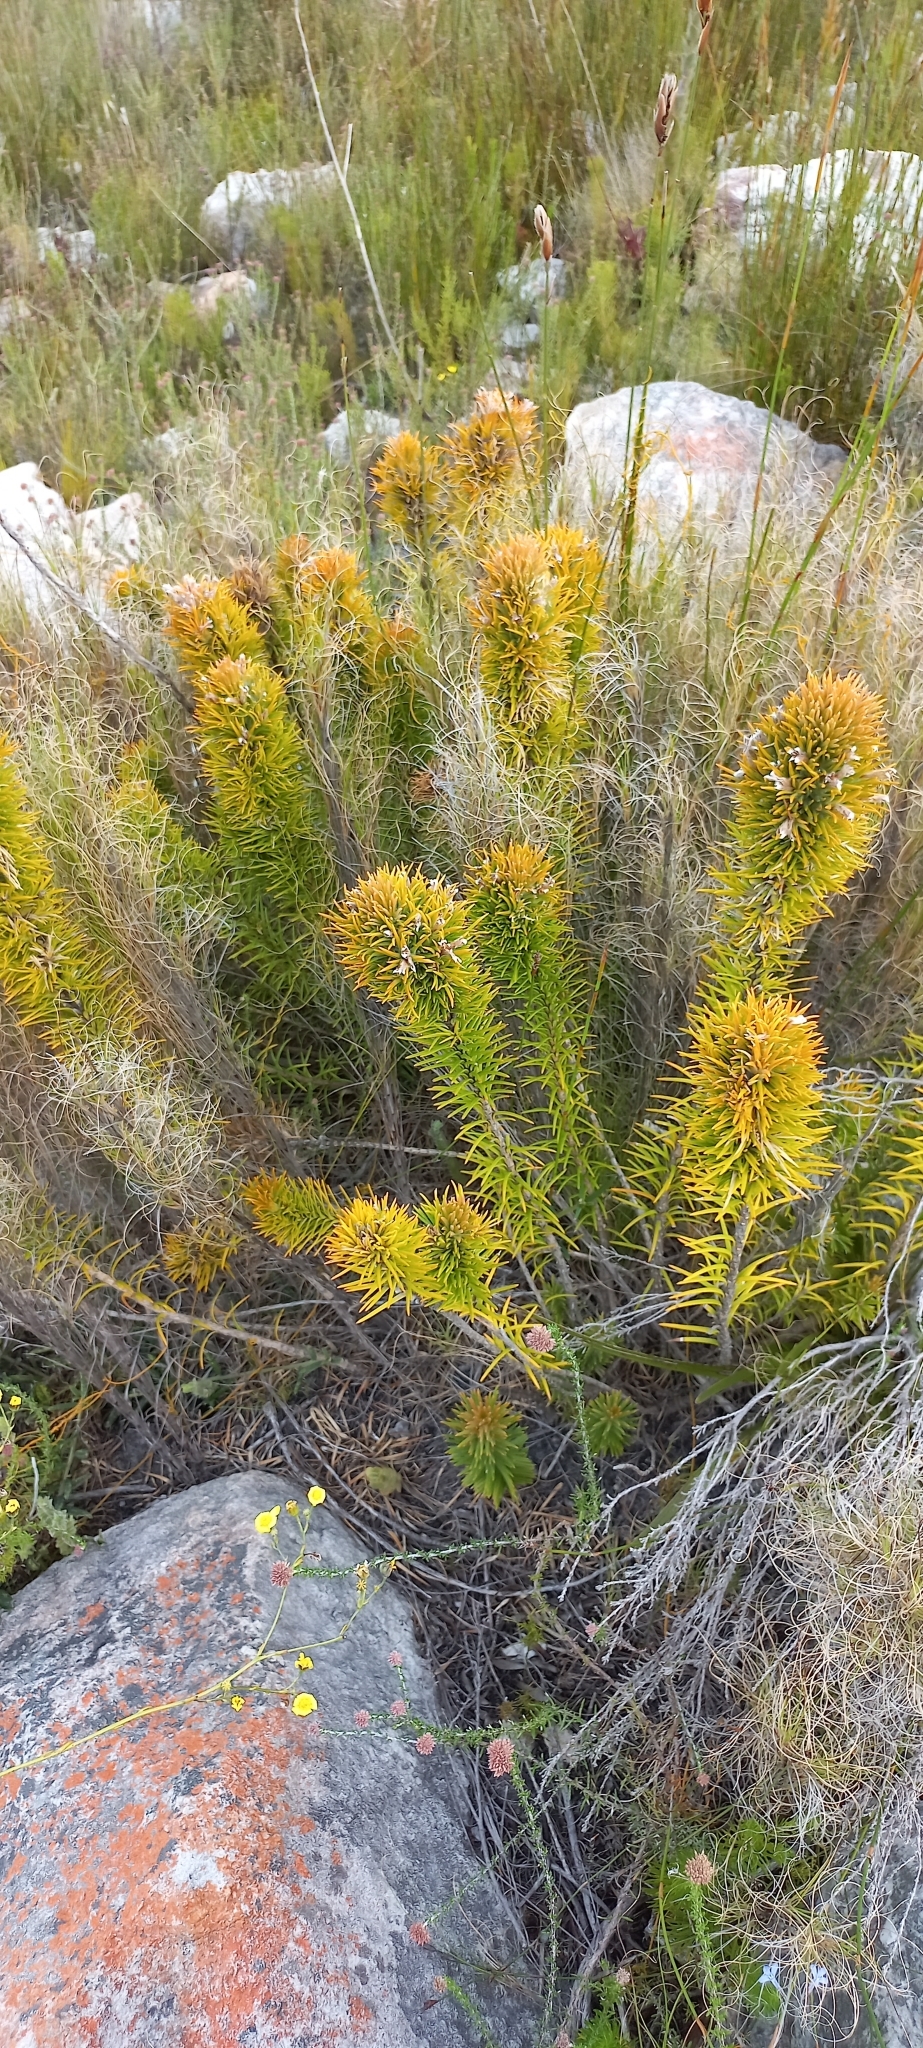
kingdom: Plantae
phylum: Tracheophyta
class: Magnoliopsida
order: Lamiales
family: Stilbaceae
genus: Retzia
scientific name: Retzia capensis
